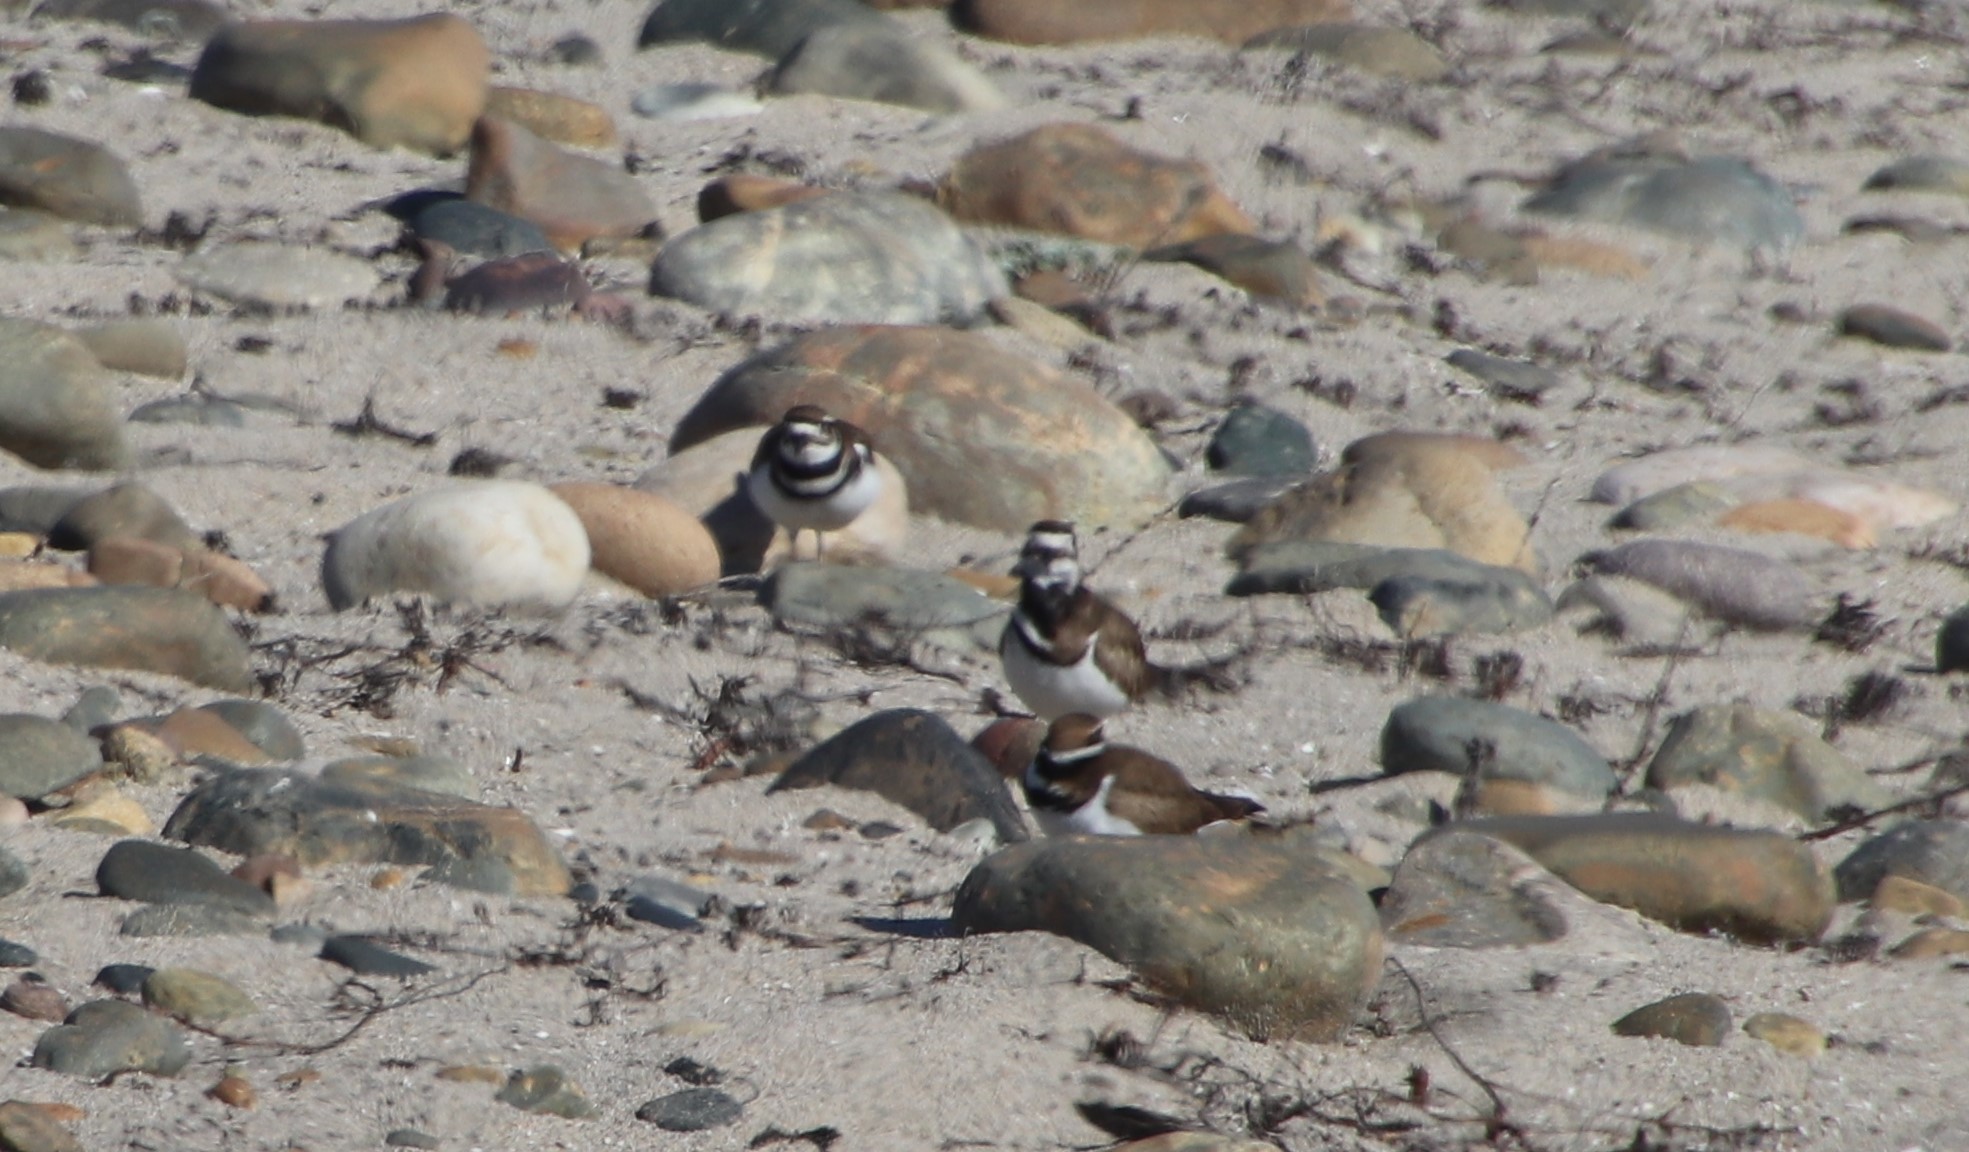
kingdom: Animalia
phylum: Chordata
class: Aves
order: Charadriiformes
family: Charadriidae
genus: Charadrius
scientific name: Charadrius vociferus
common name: Killdeer
